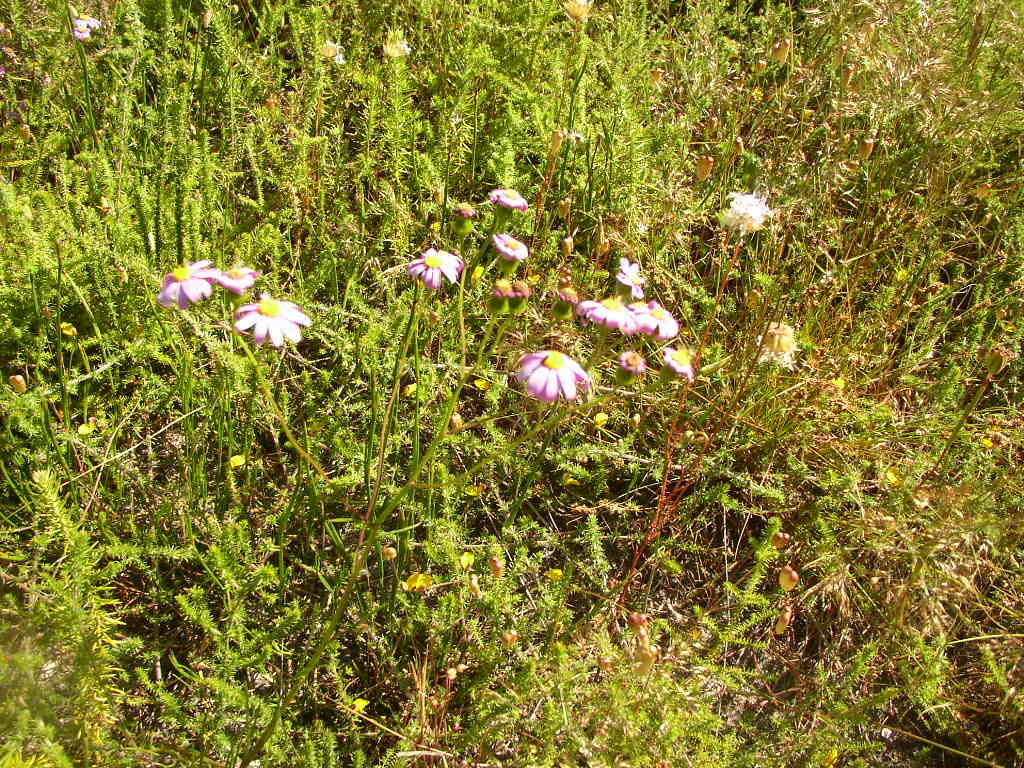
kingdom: Plantae
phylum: Tracheophyta
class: Magnoliopsida
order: Asterales
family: Asteraceae
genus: Senecio
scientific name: Senecio elegans
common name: Purple groundsel
